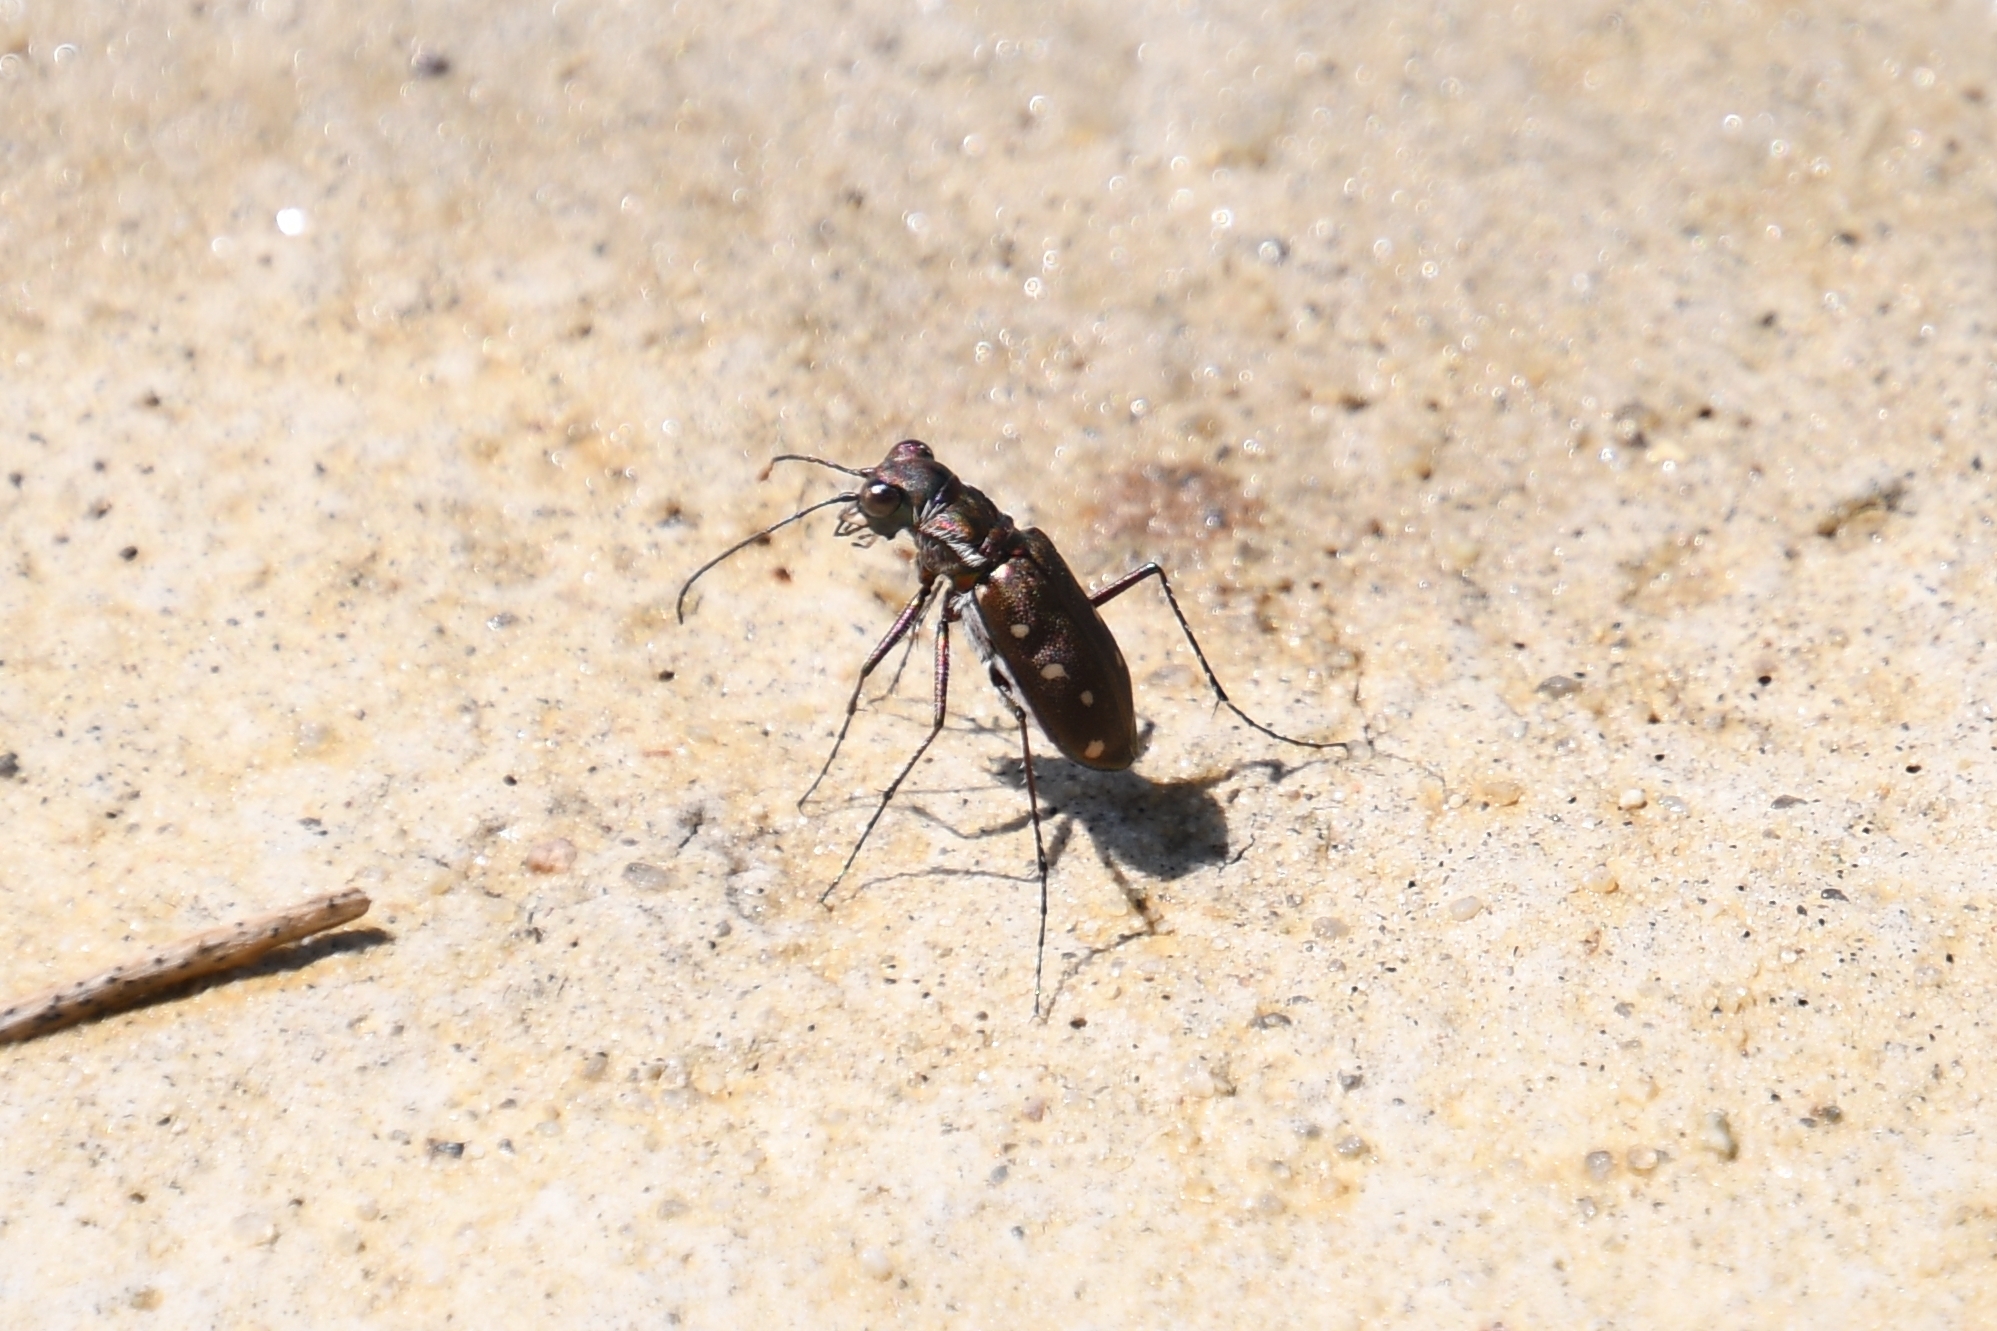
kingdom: Animalia
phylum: Arthropoda
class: Insecta
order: Coleoptera
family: Carabidae
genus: Cicindela
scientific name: Cicindela ocellata
